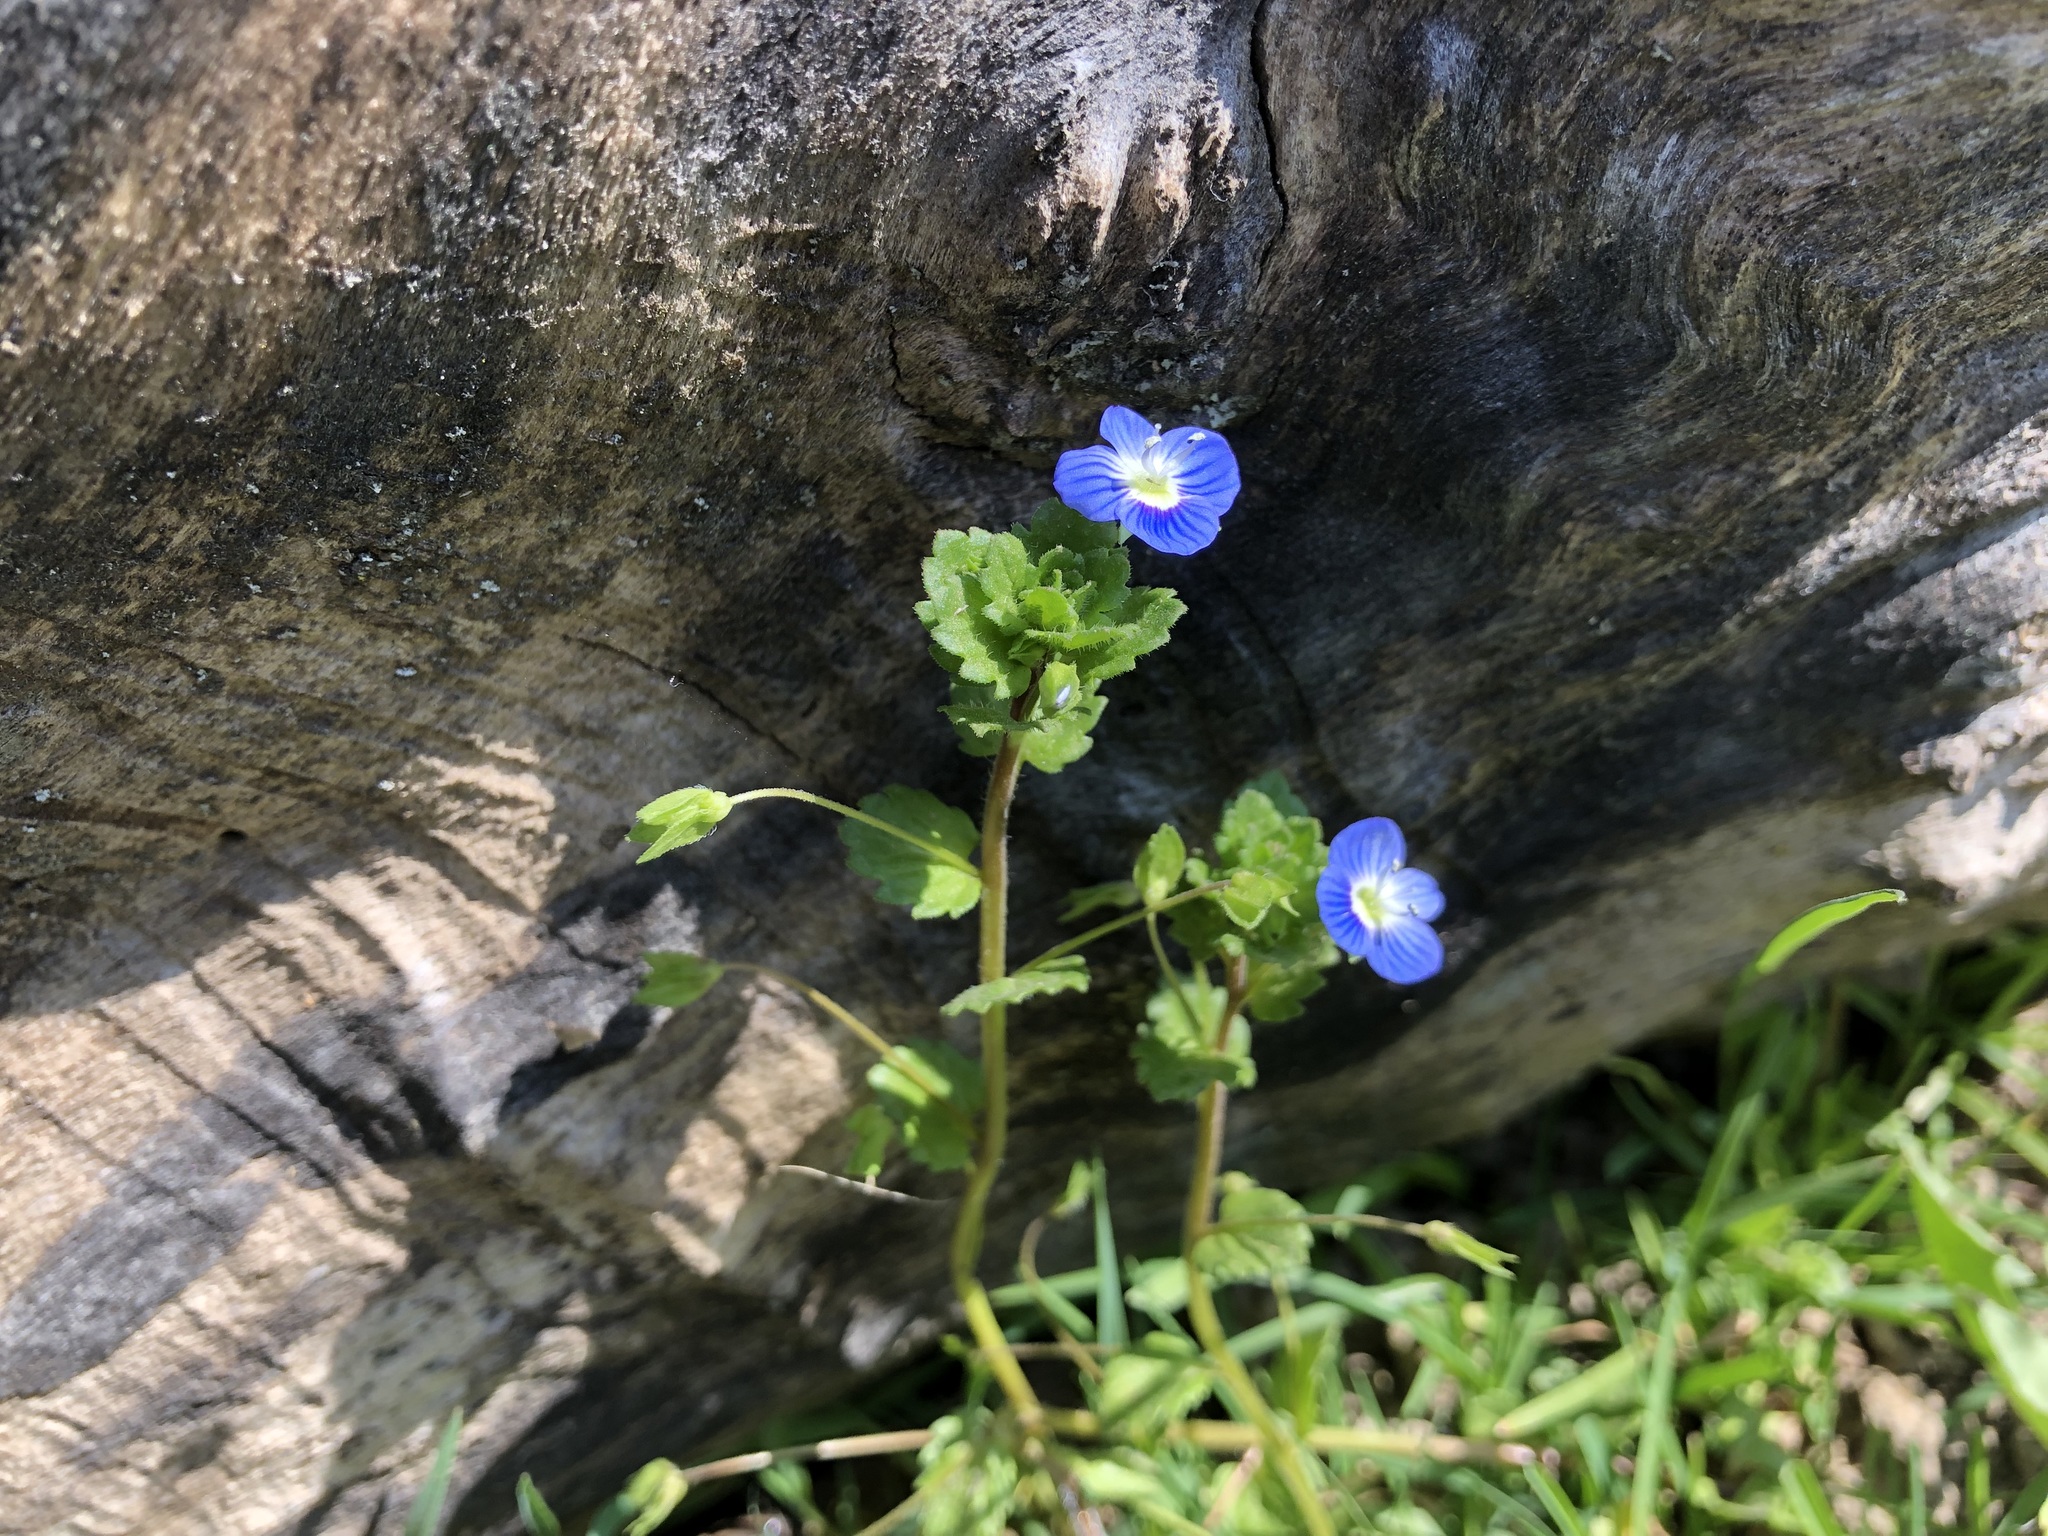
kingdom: Plantae
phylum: Tracheophyta
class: Magnoliopsida
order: Lamiales
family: Plantaginaceae
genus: Veronica
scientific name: Veronica persica
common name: Common field-speedwell
